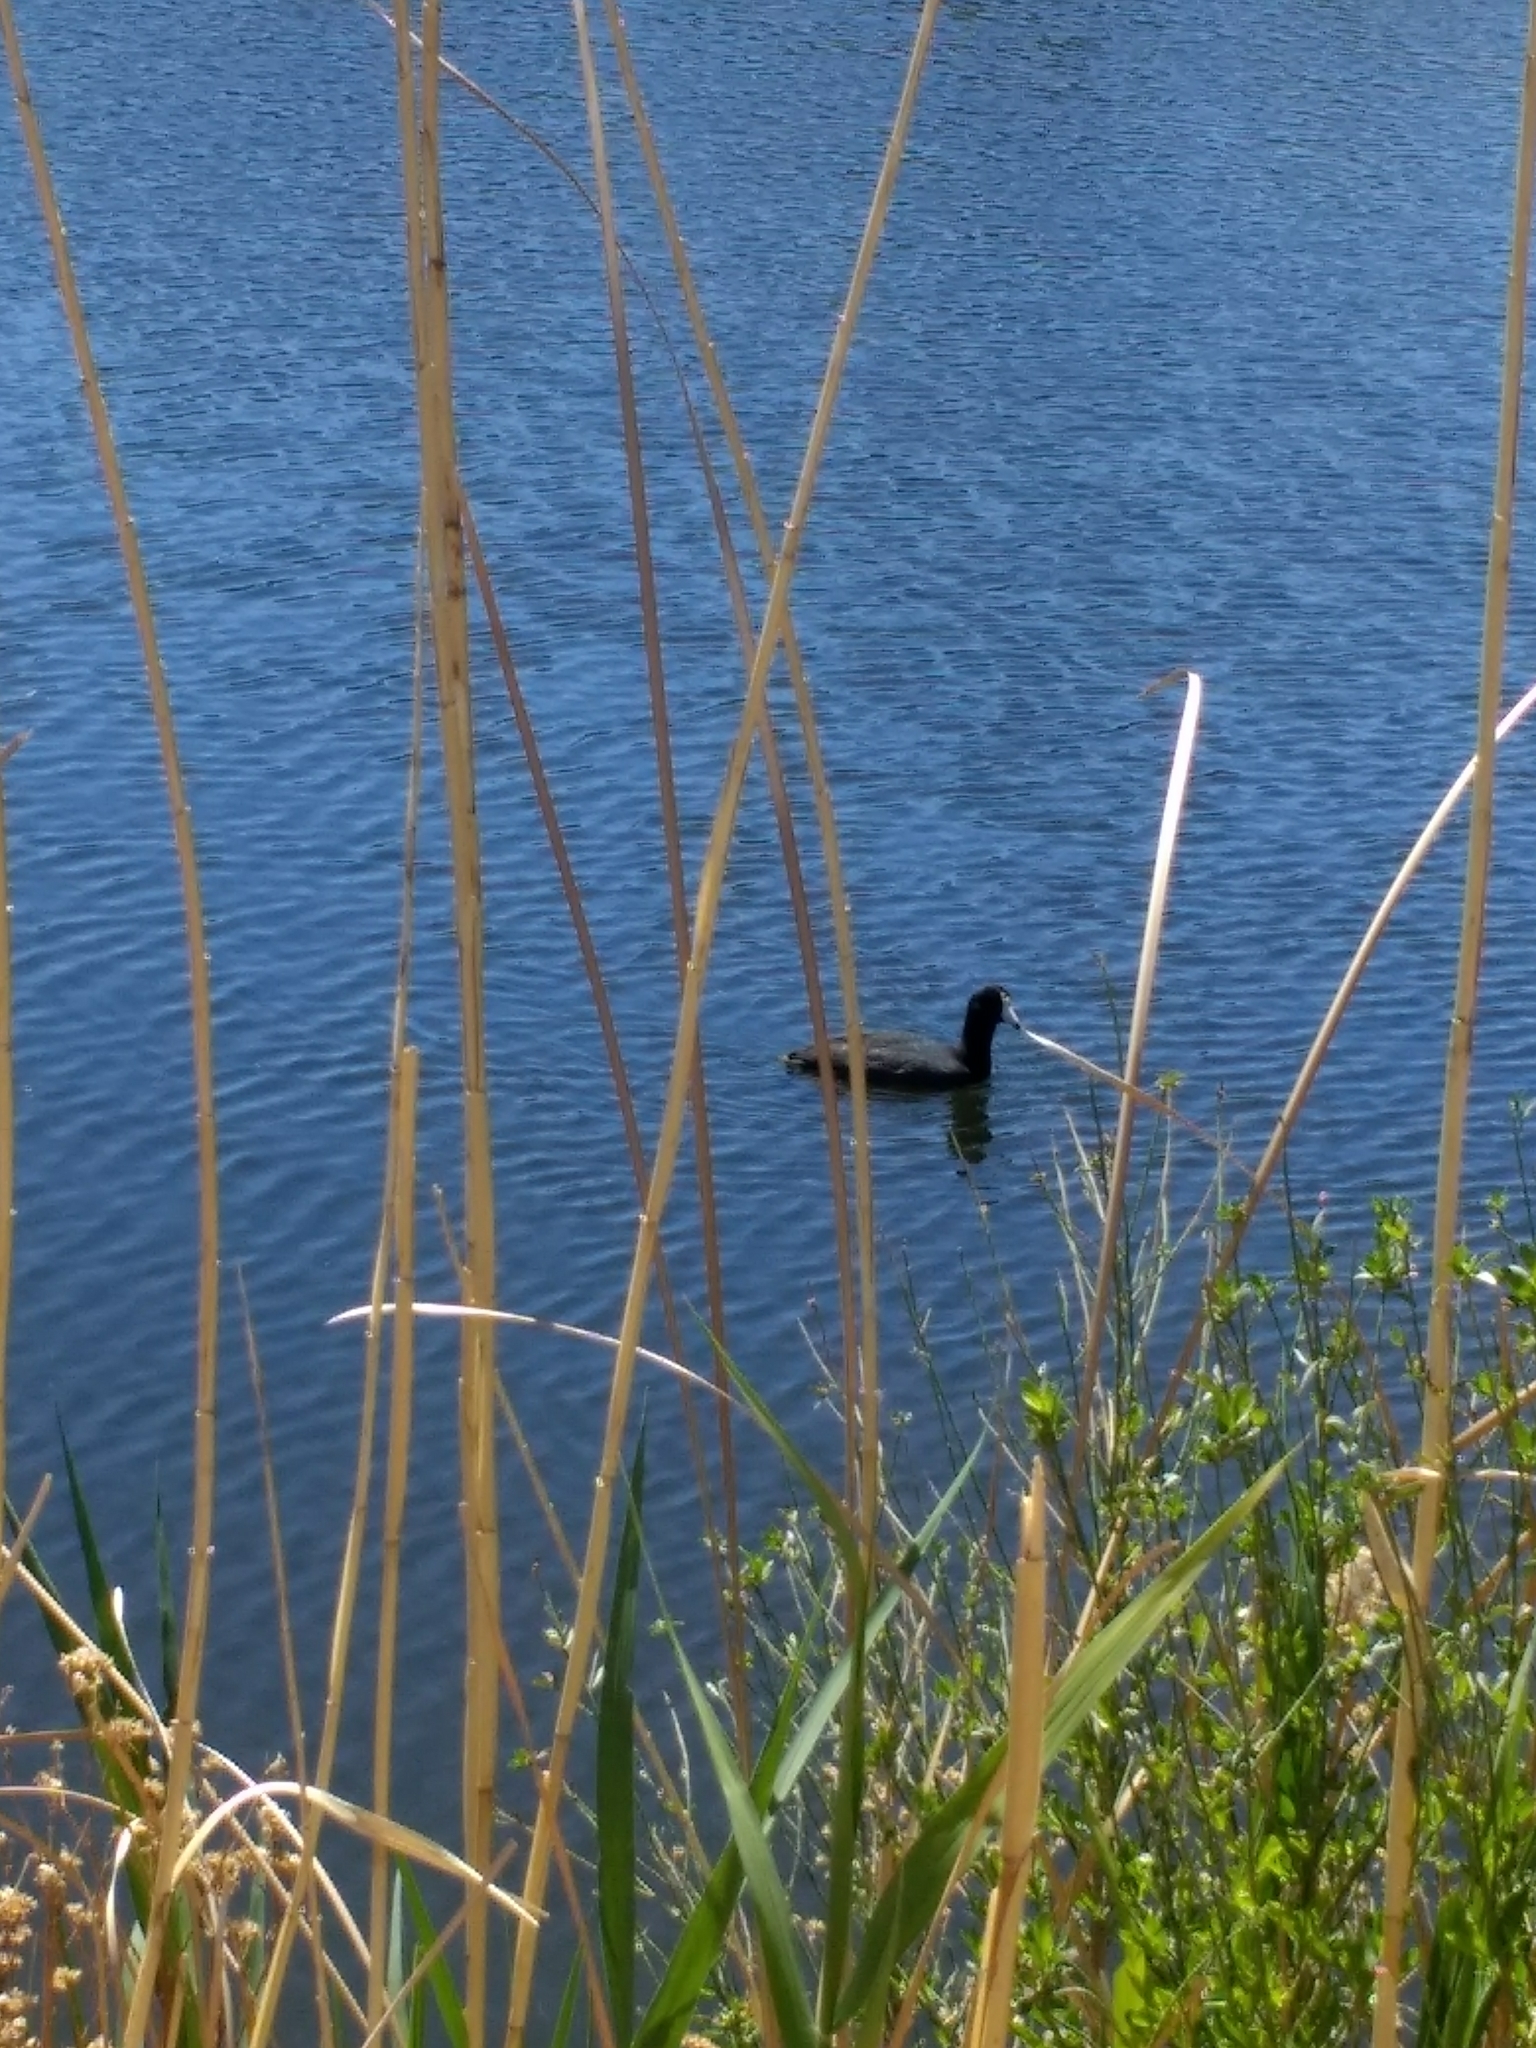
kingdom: Animalia
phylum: Chordata
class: Aves
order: Gruiformes
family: Rallidae
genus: Fulica
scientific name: Fulica americana
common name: American coot
